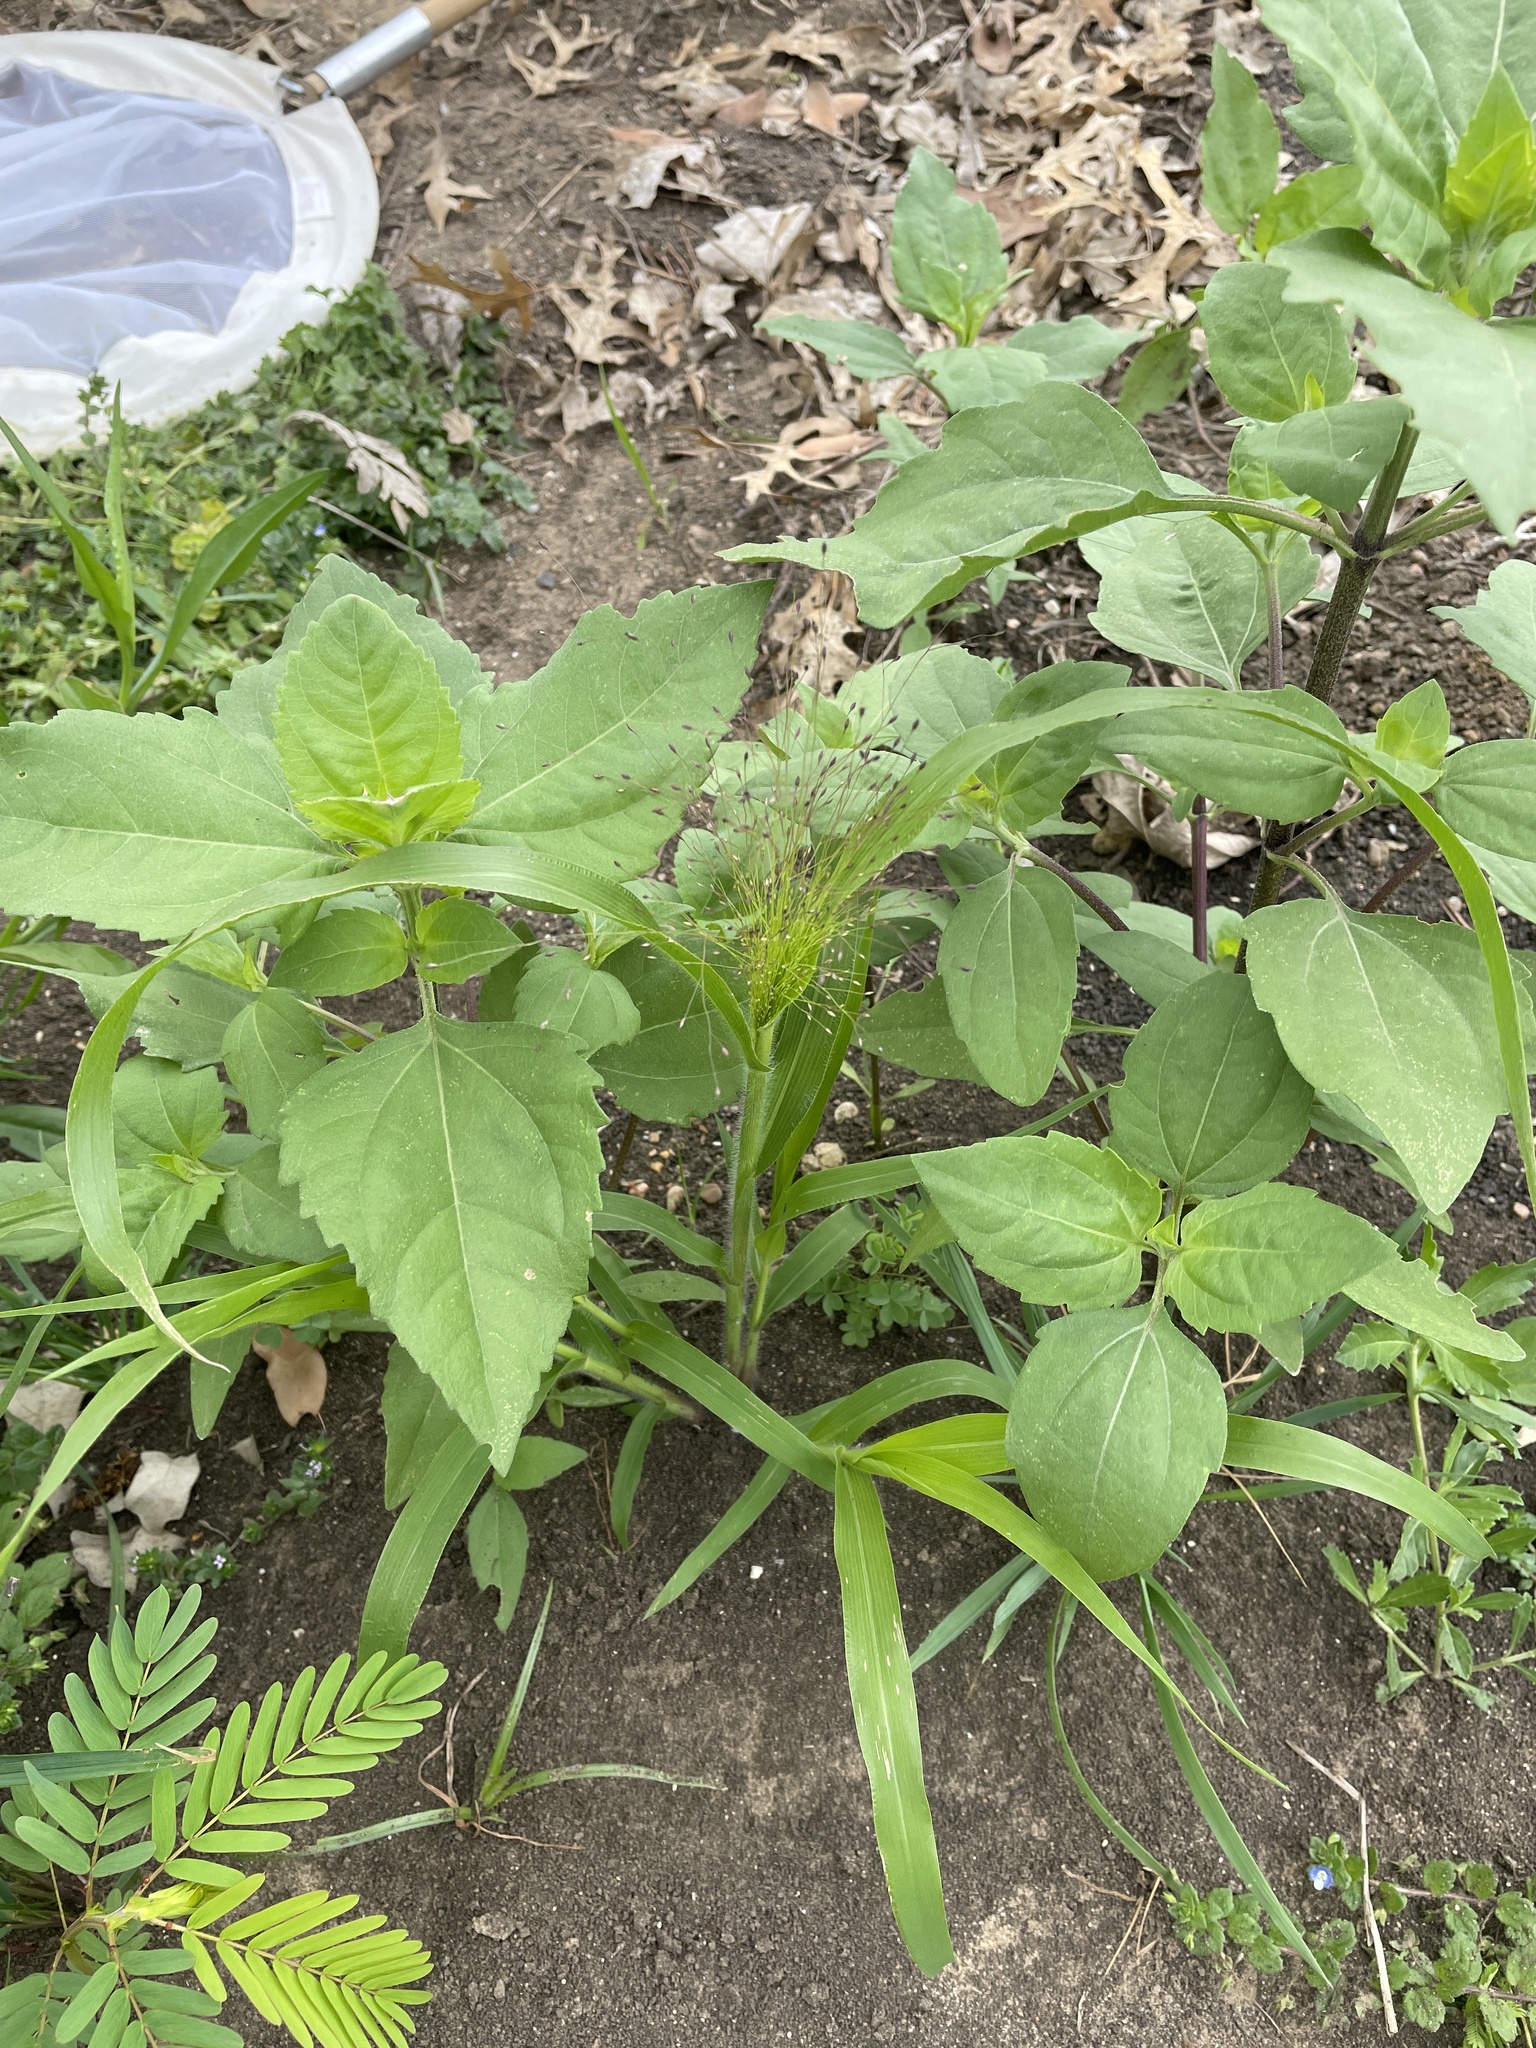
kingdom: Plantae
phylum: Tracheophyta
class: Liliopsida
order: Poales
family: Poaceae
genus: Panicum
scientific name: Panicum capillare
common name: Witch-grass
